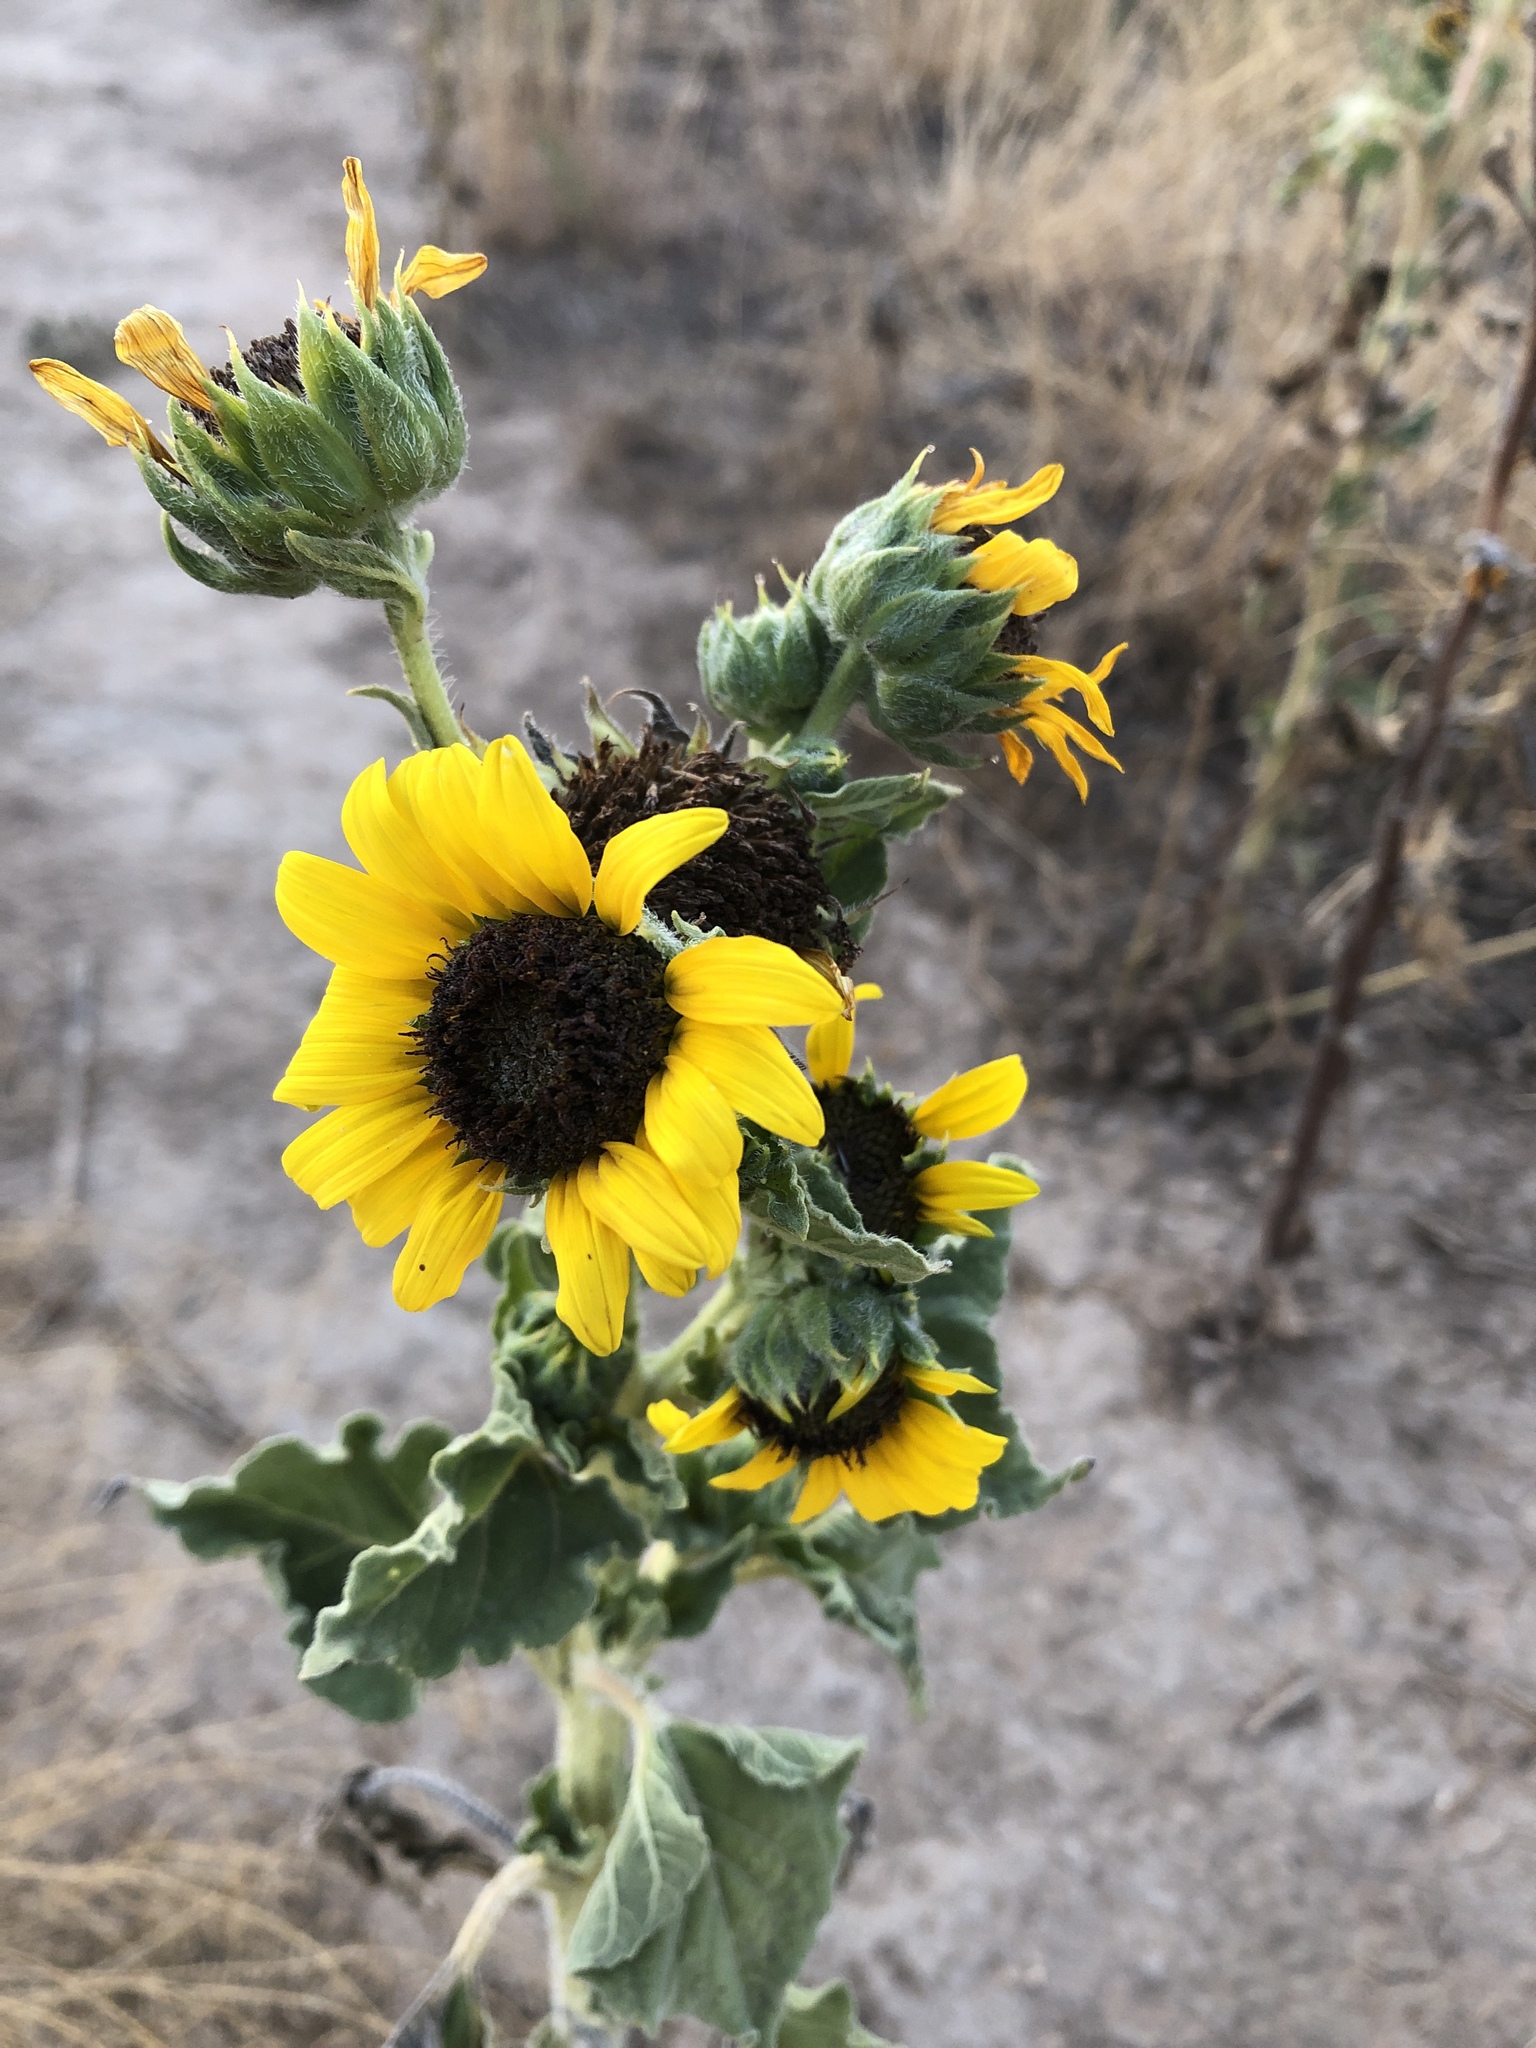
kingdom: Plantae
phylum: Tracheophyta
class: Magnoliopsida
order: Asterales
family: Asteraceae
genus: Helianthus
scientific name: Helianthus annuus
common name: Sunflower
